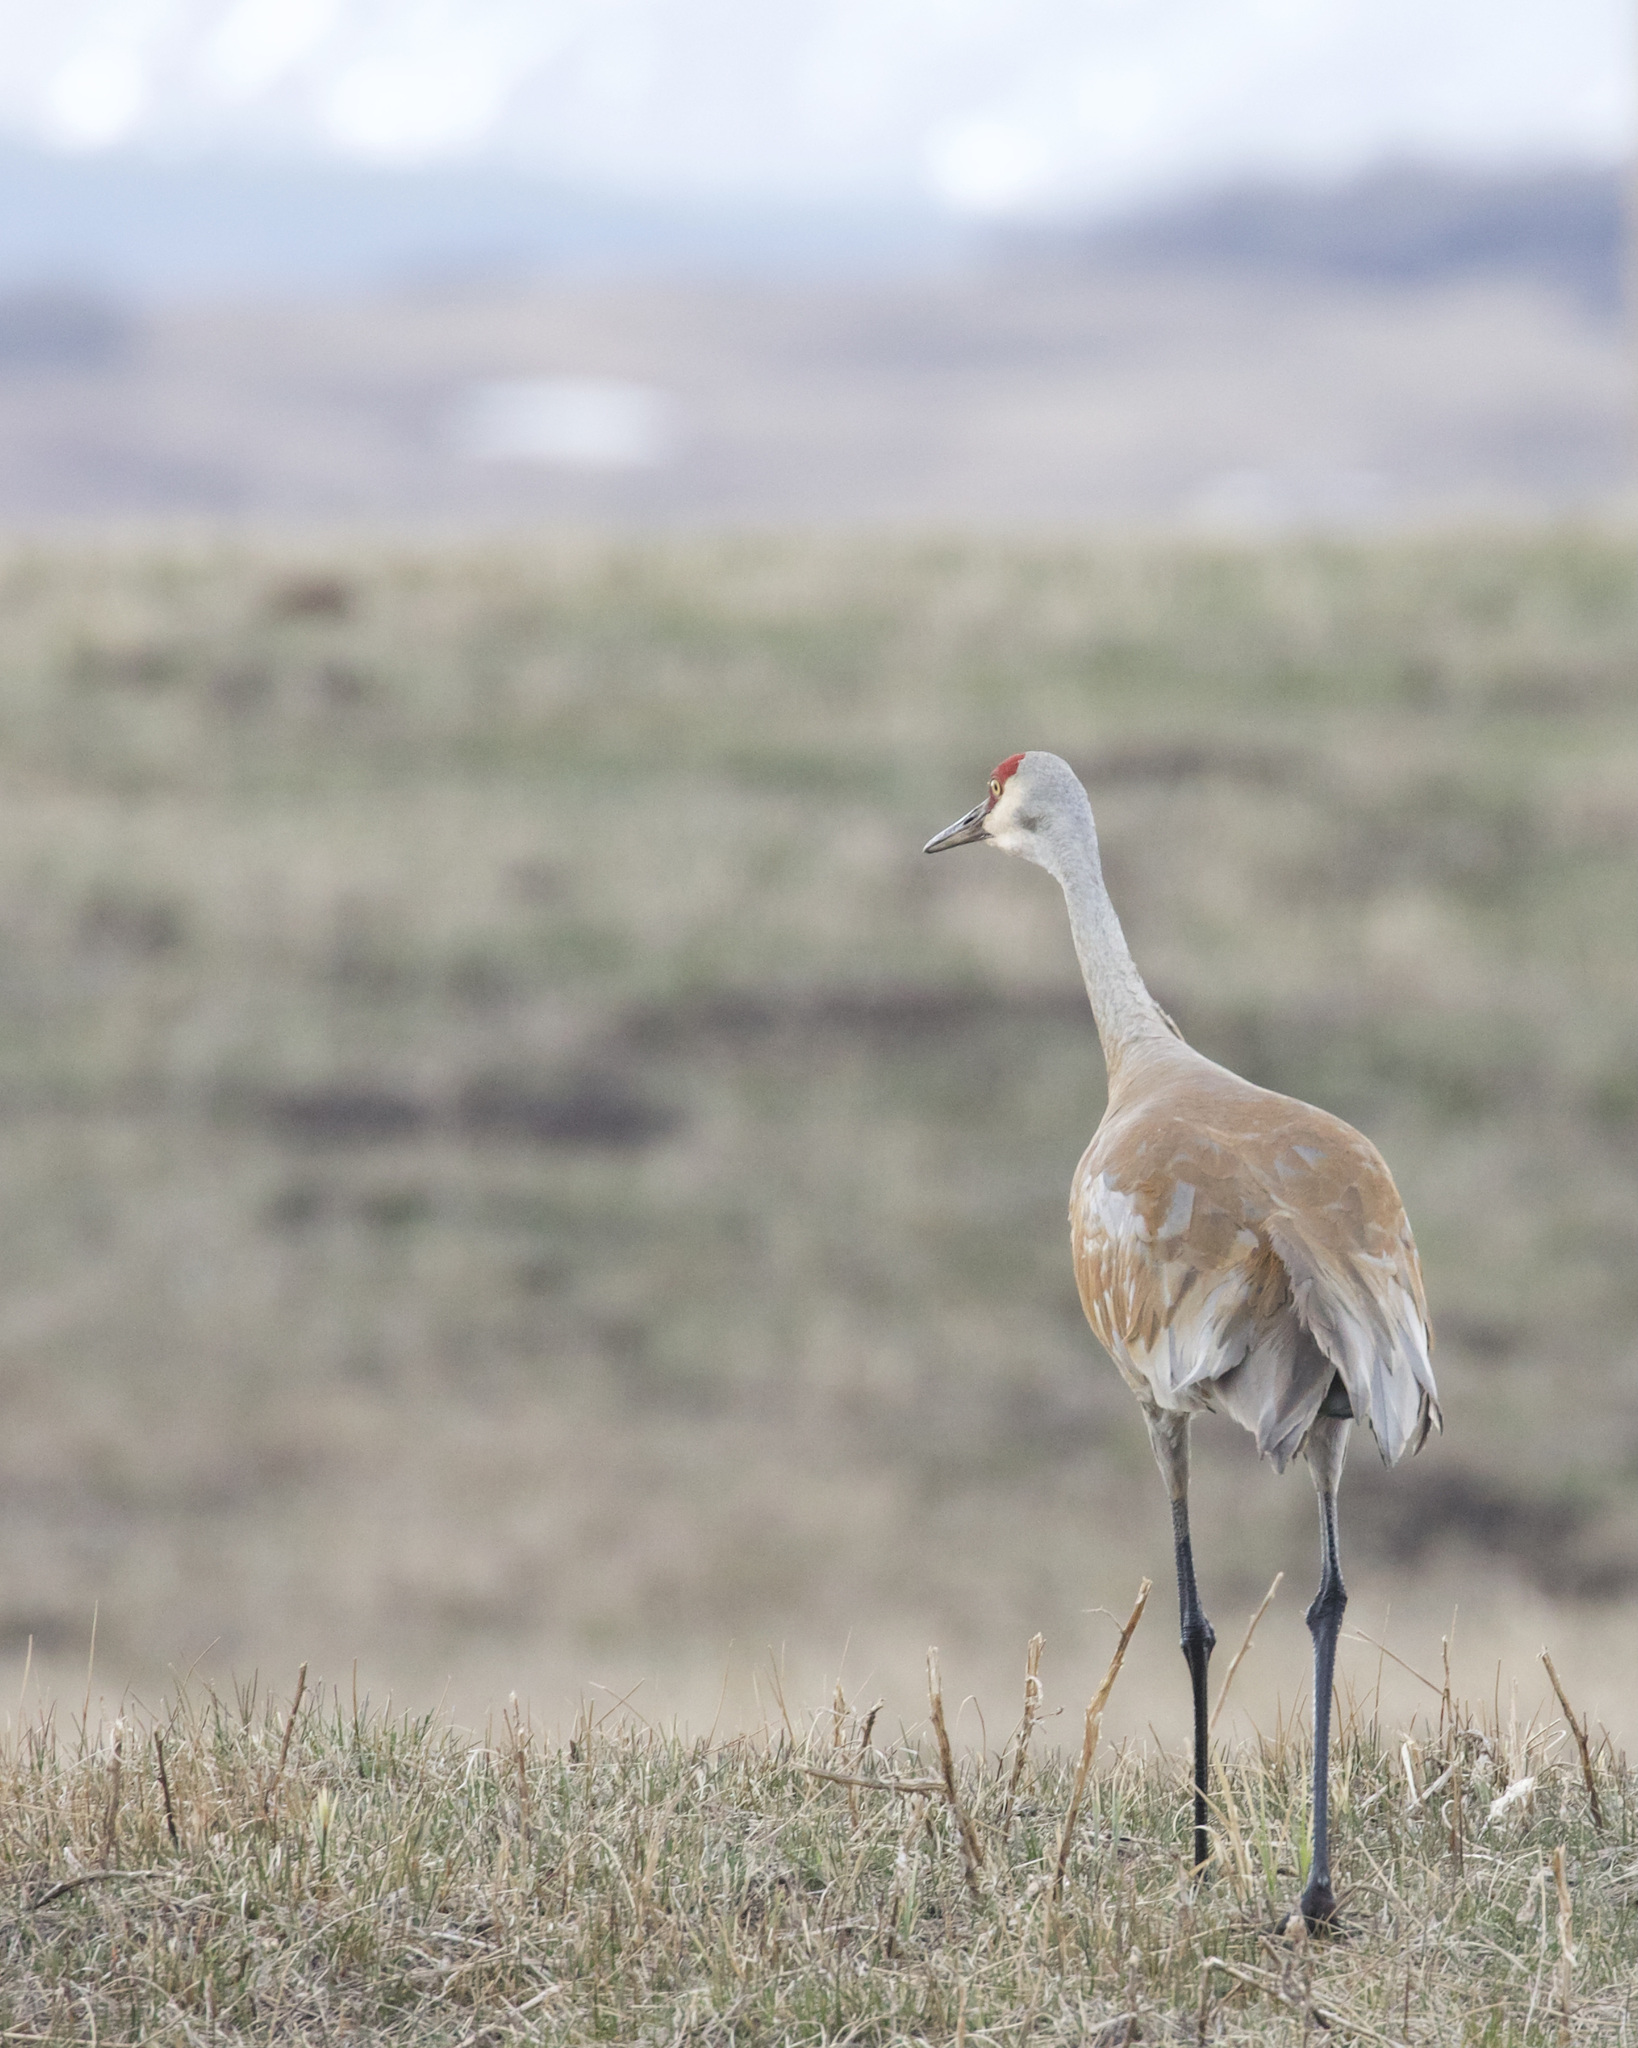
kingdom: Animalia
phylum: Chordata
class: Aves
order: Gruiformes
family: Gruidae
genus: Grus
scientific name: Grus canadensis
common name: Sandhill crane
